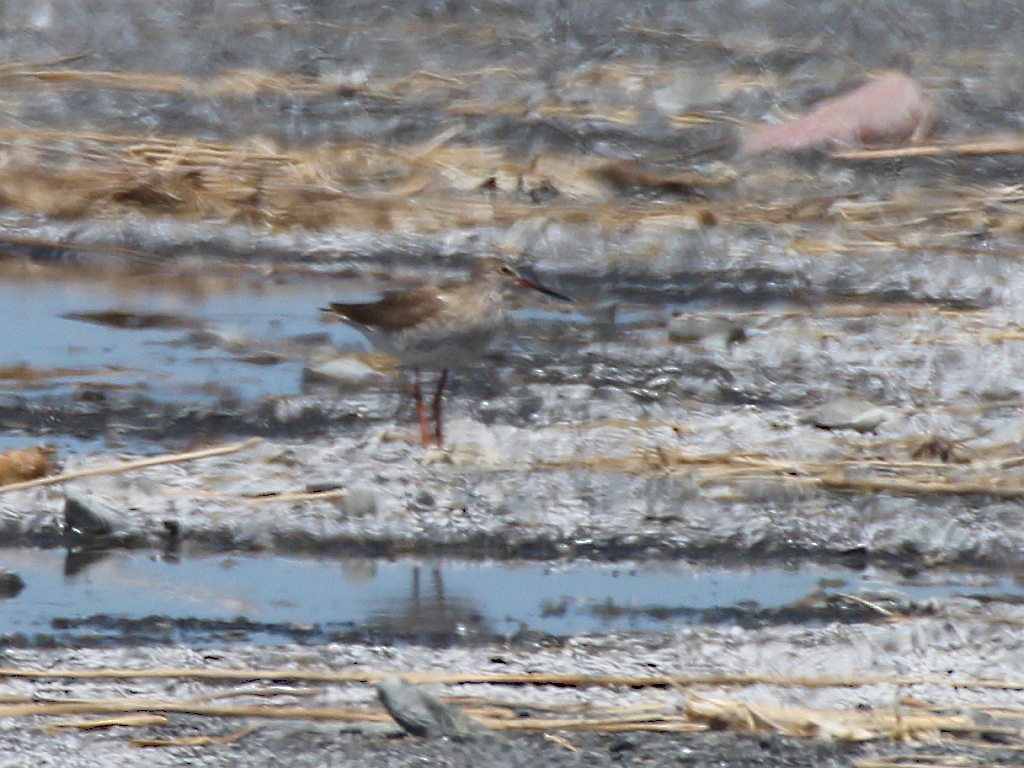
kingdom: Animalia
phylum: Chordata
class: Aves
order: Charadriiformes
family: Scolopacidae
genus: Tringa
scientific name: Tringa totanus
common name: Common redshank
